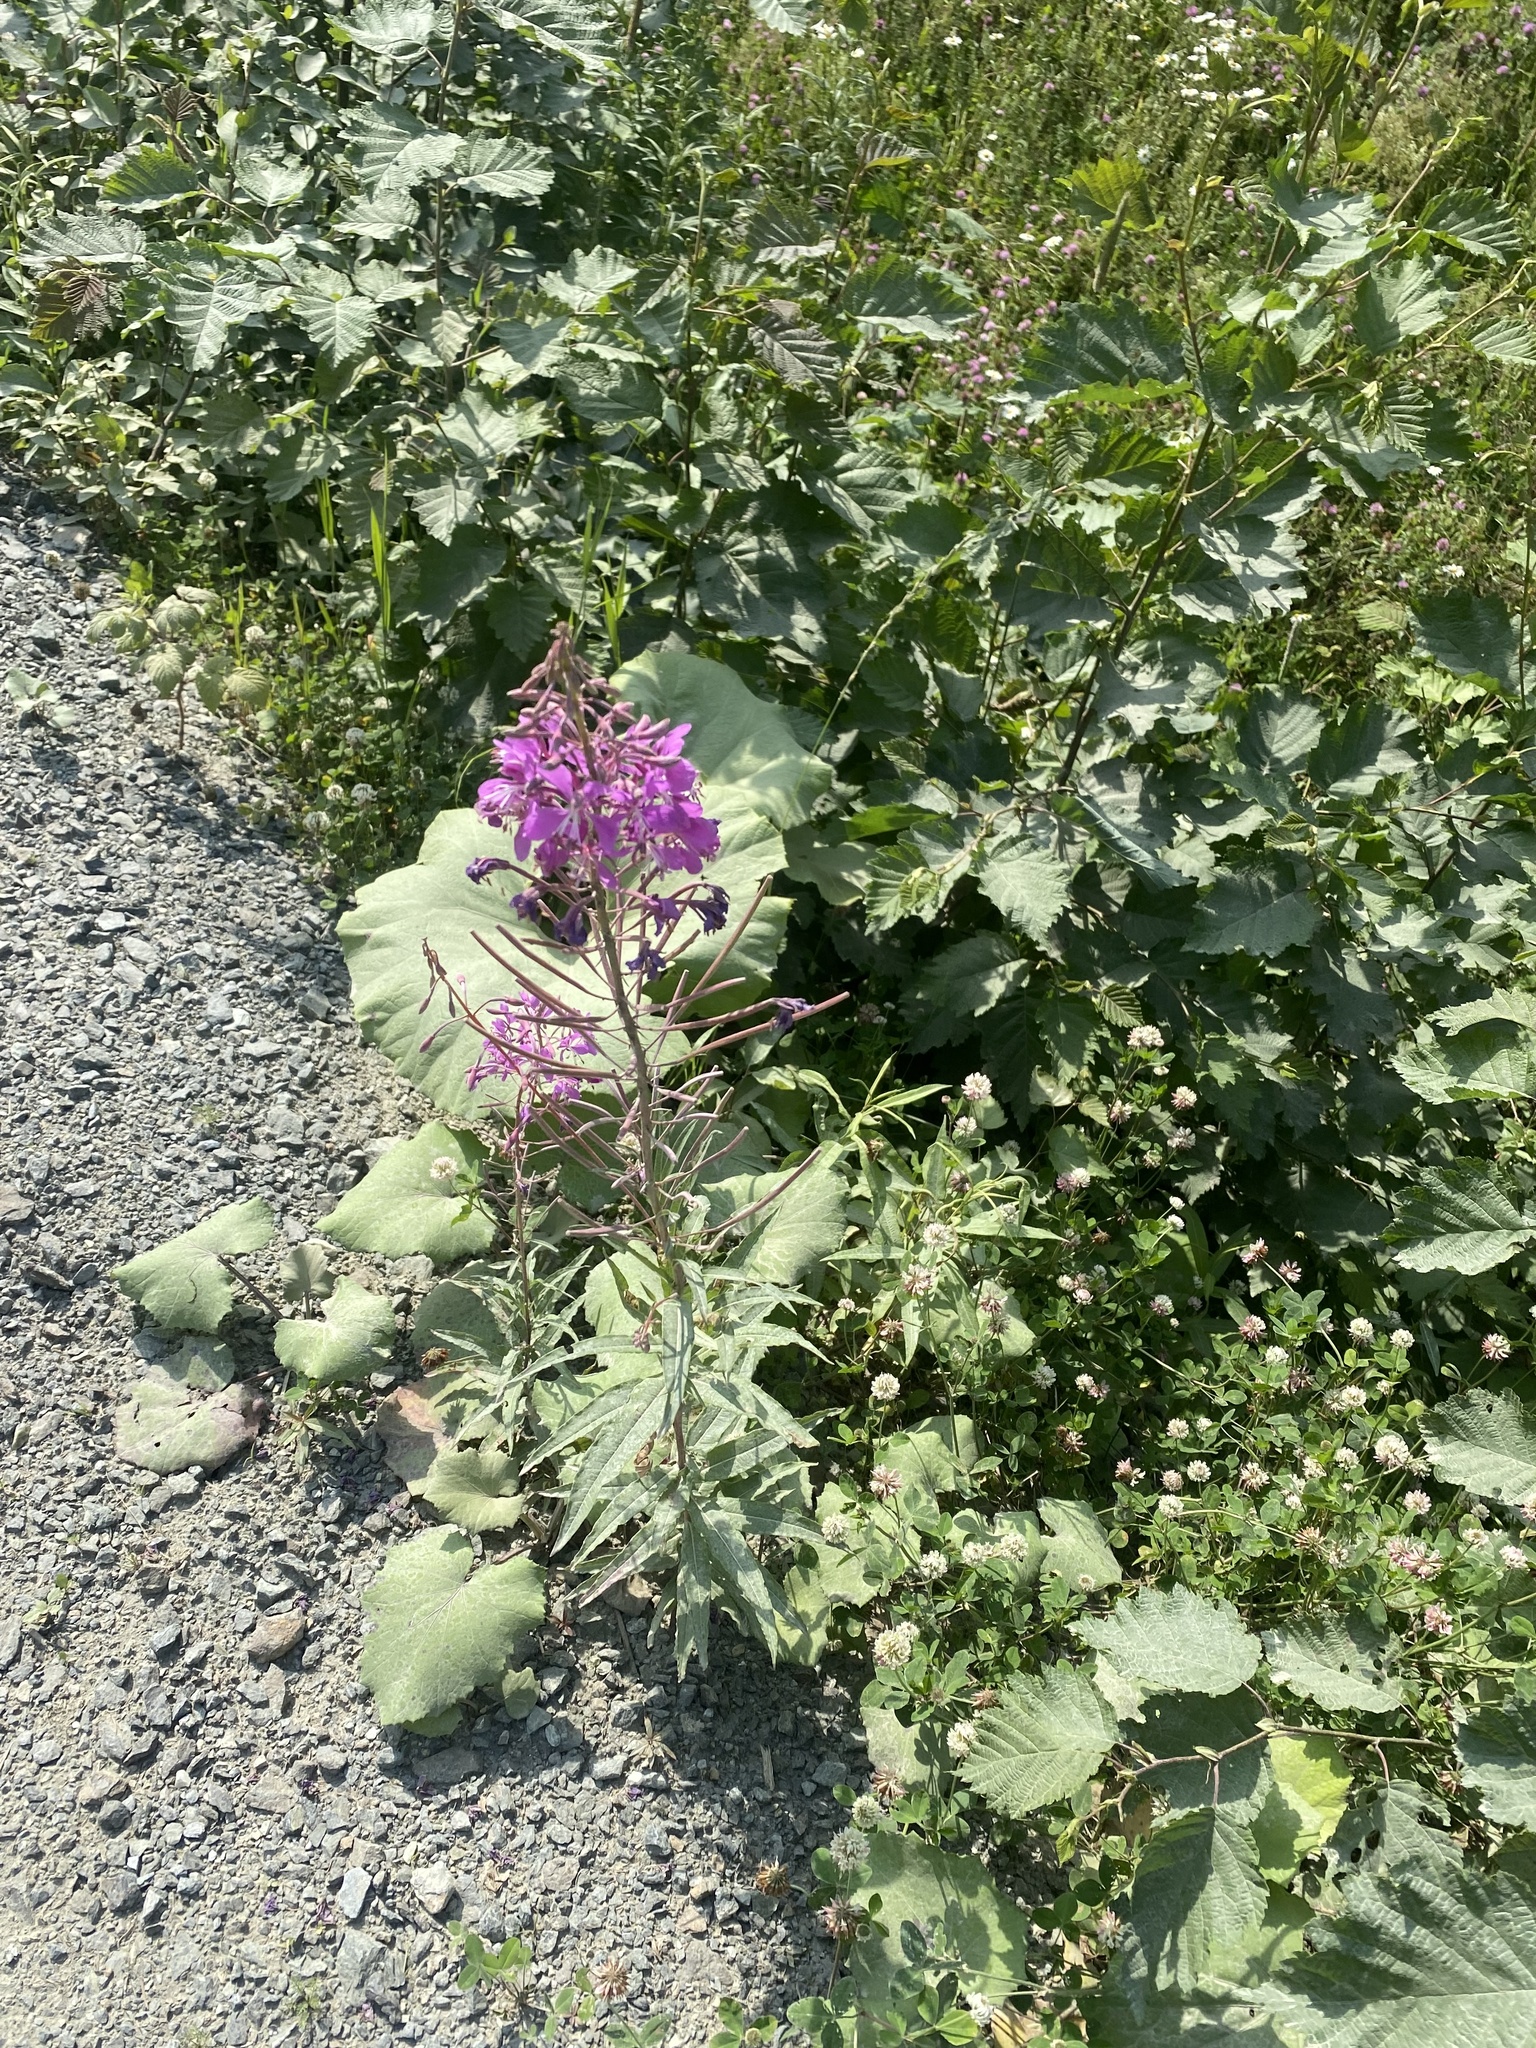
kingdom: Plantae
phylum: Tracheophyta
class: Magnoliopsida
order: Myrtales
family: Onagraceae
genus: Chamaenerion
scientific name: Chamaenerion angustifolium
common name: Fireweed
